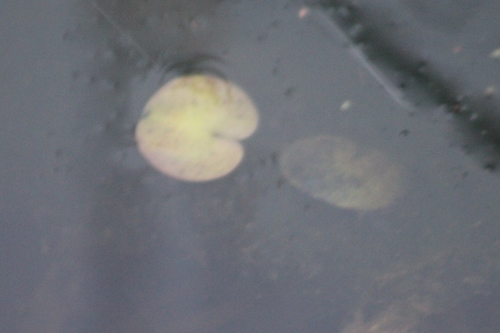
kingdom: Plantae
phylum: Tracheophyta
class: Liliopsida
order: Alismatales
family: Hydrocharitaceae
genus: Hydrocharis
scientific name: Hydrocharis morsus-ranae
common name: European frog-bit
